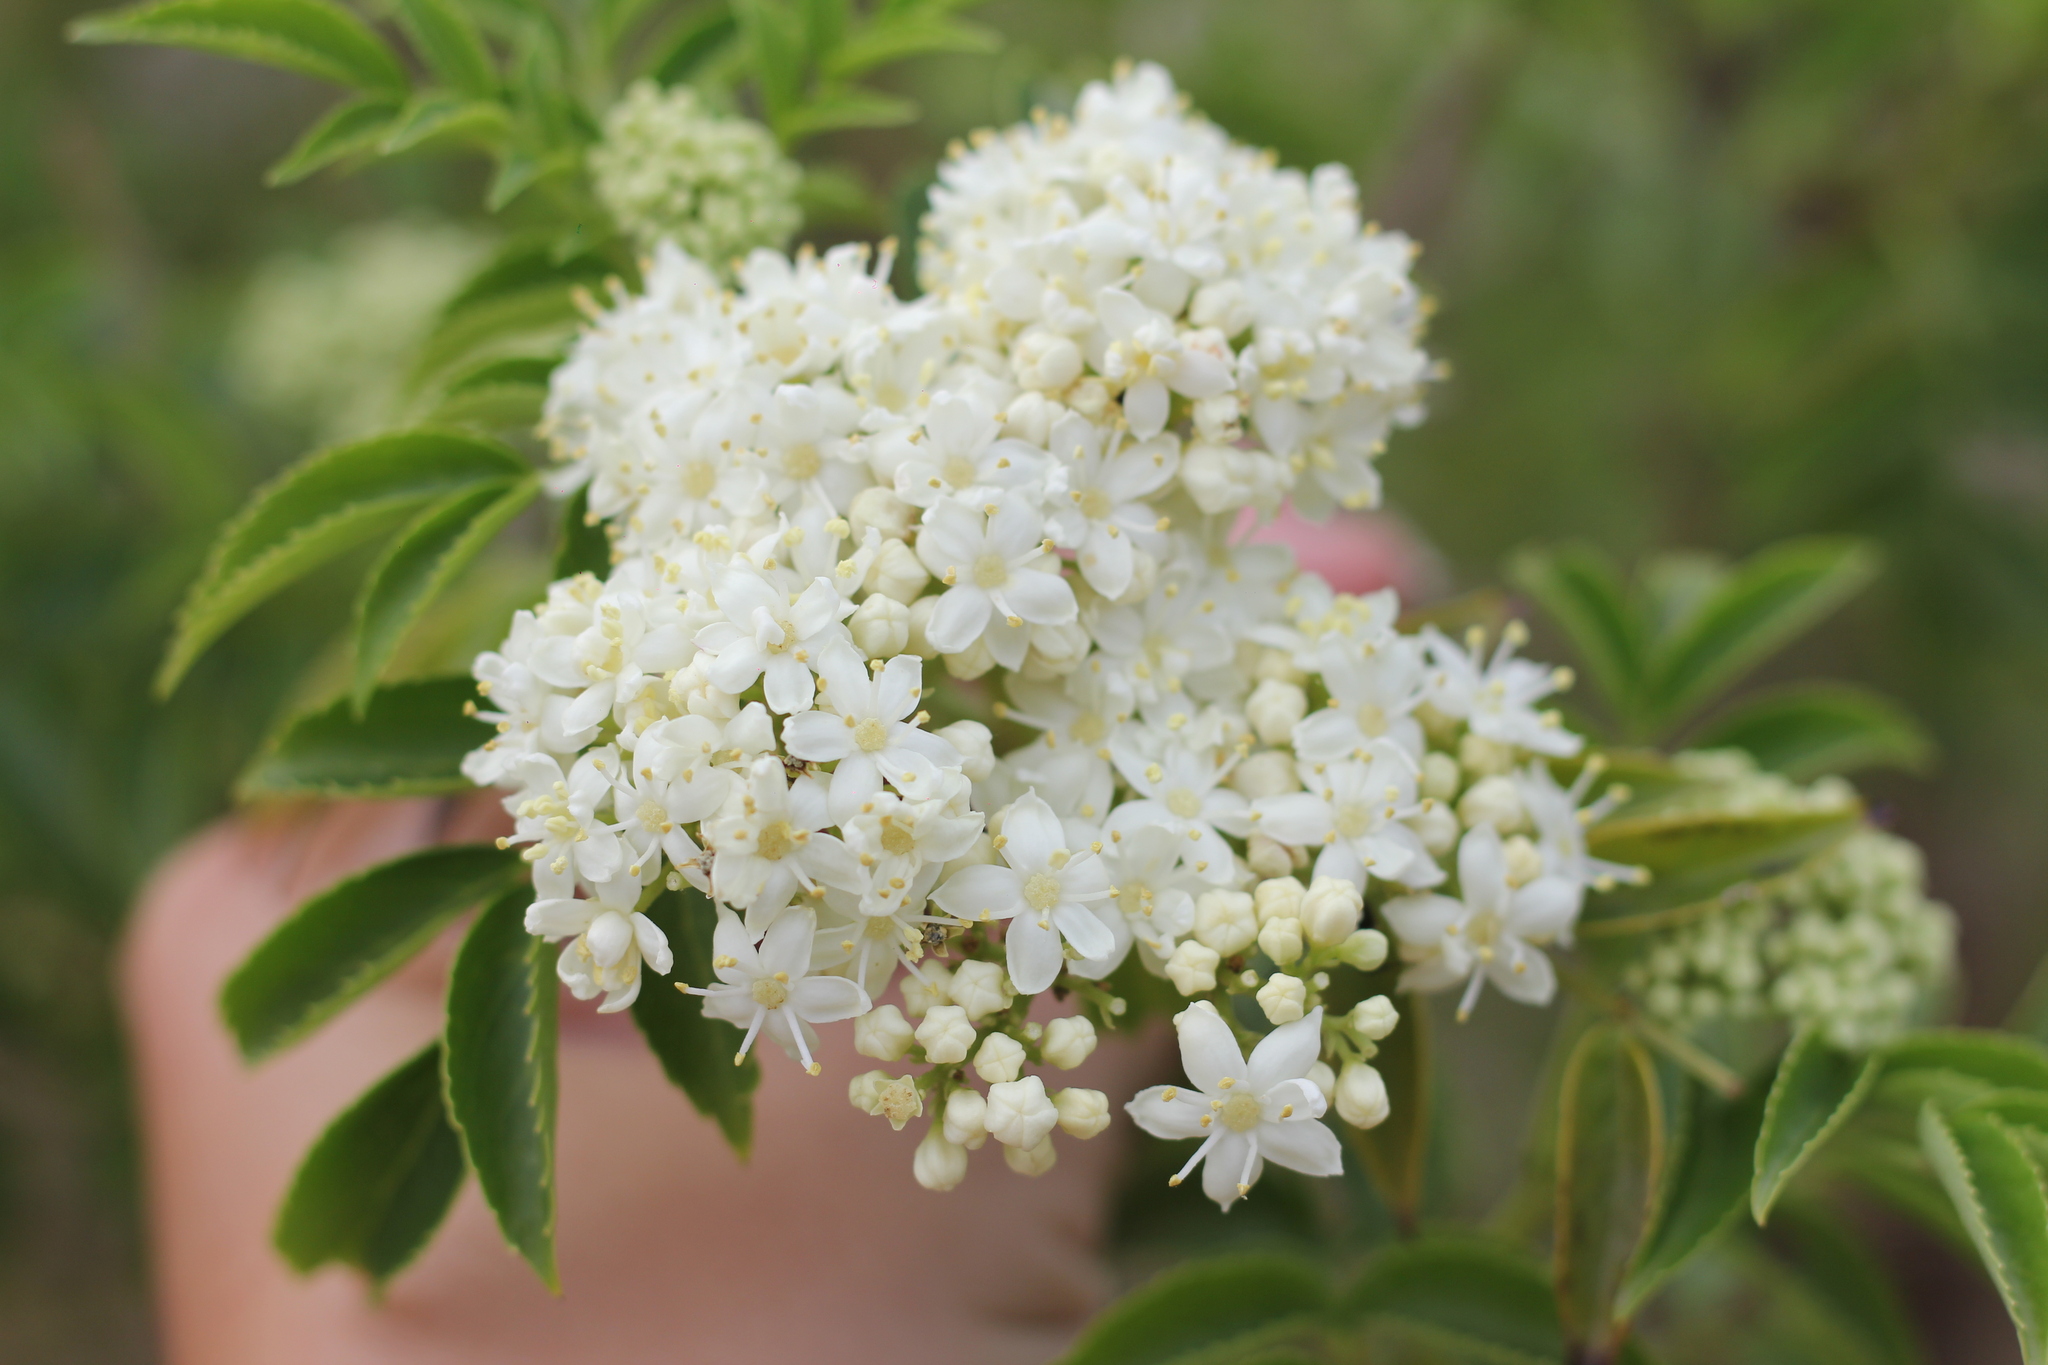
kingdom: Plantae
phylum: Tracheophyta
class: Magnoliopsida
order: Dipsacales
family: Viburnaceae
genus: Sambucus
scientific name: Sambucus australis
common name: Southern elder
